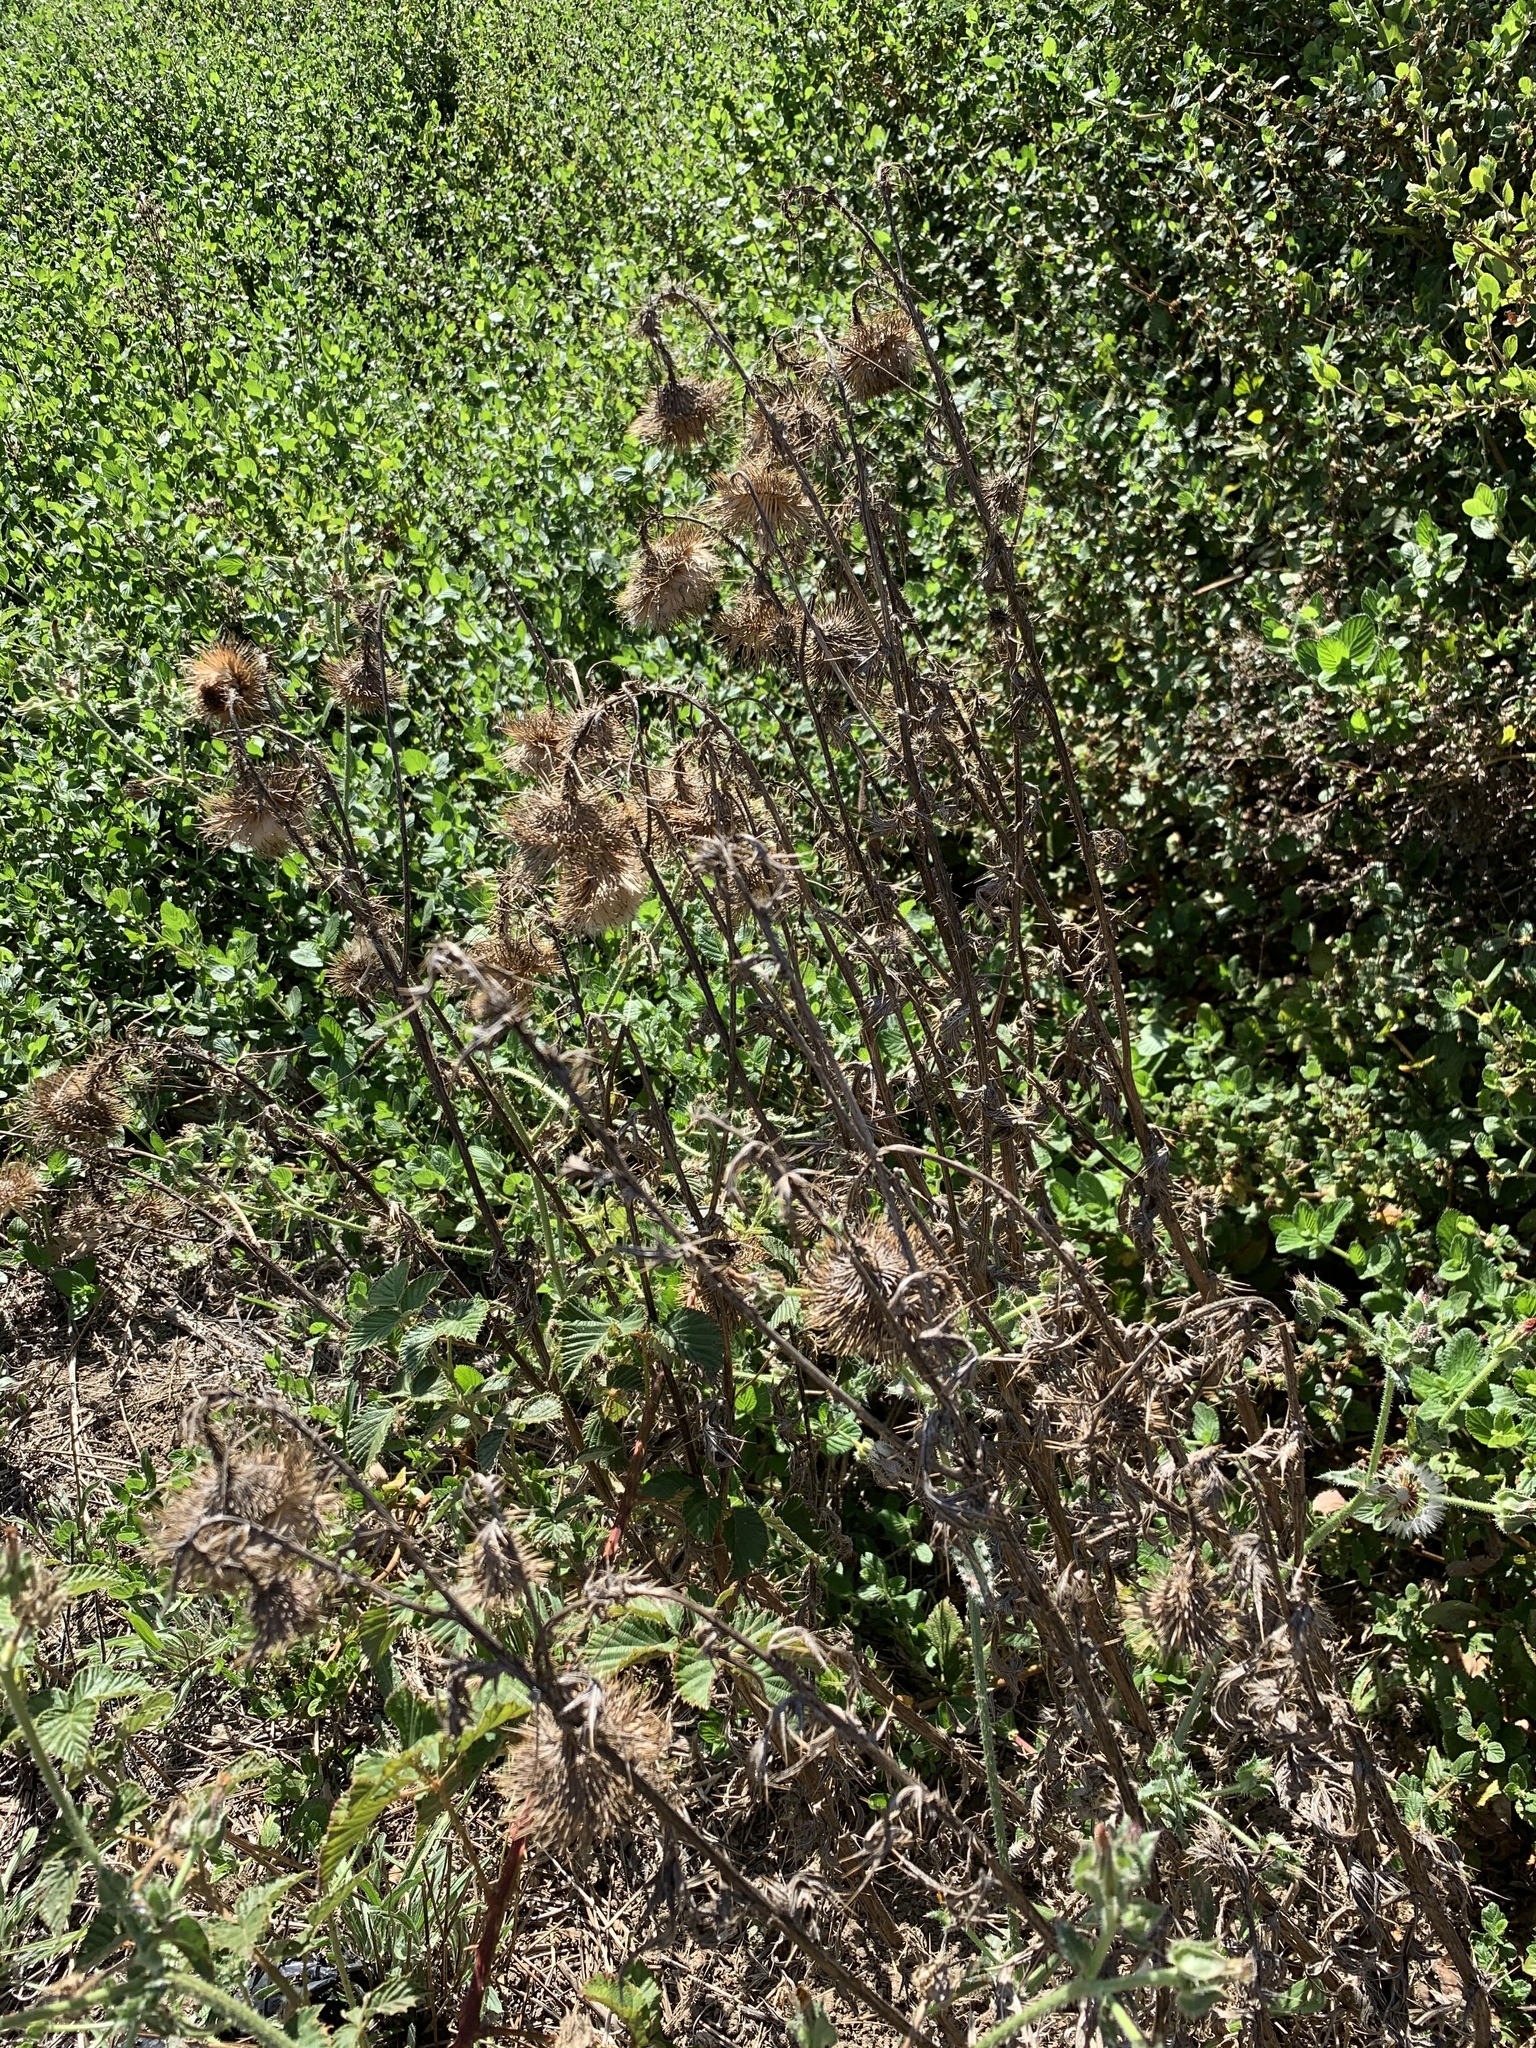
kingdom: Plantae
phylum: Tracheophyta
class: Magnoliopsida
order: Asterales
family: Asteraceae
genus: Cirsium
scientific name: Cirsium vulgare
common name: Bull thistle
